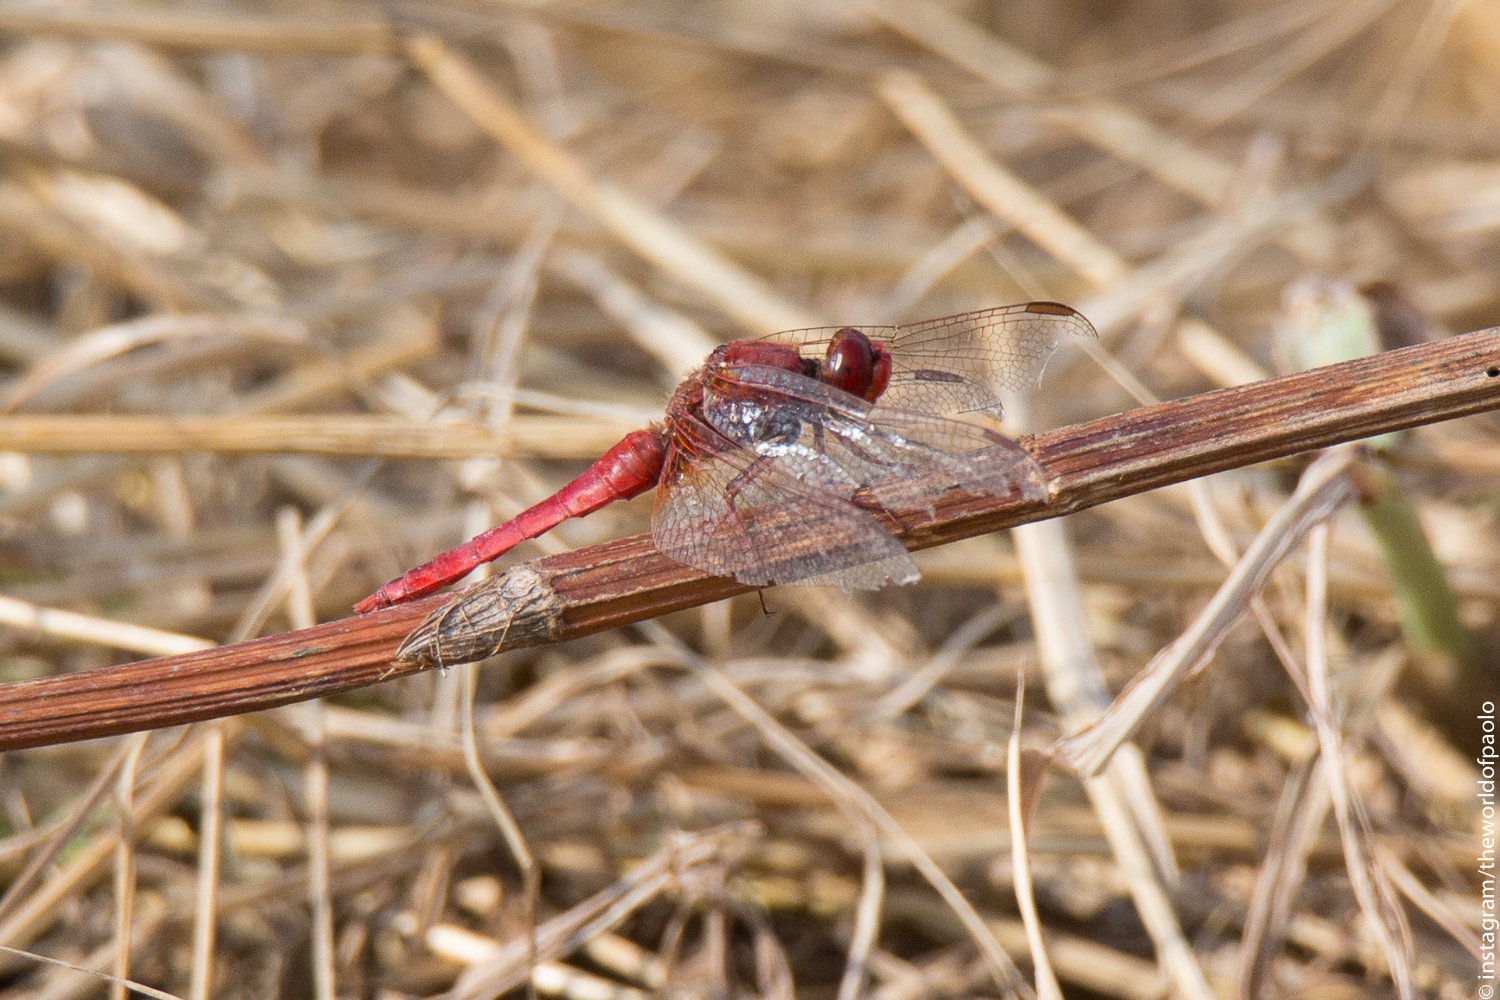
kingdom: Animalia
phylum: Arthropoda
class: Insecta
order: Odonata
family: Libellulidae
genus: Crocothemis
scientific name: Crocothemis erythraea
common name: Scarlet dragonfly
